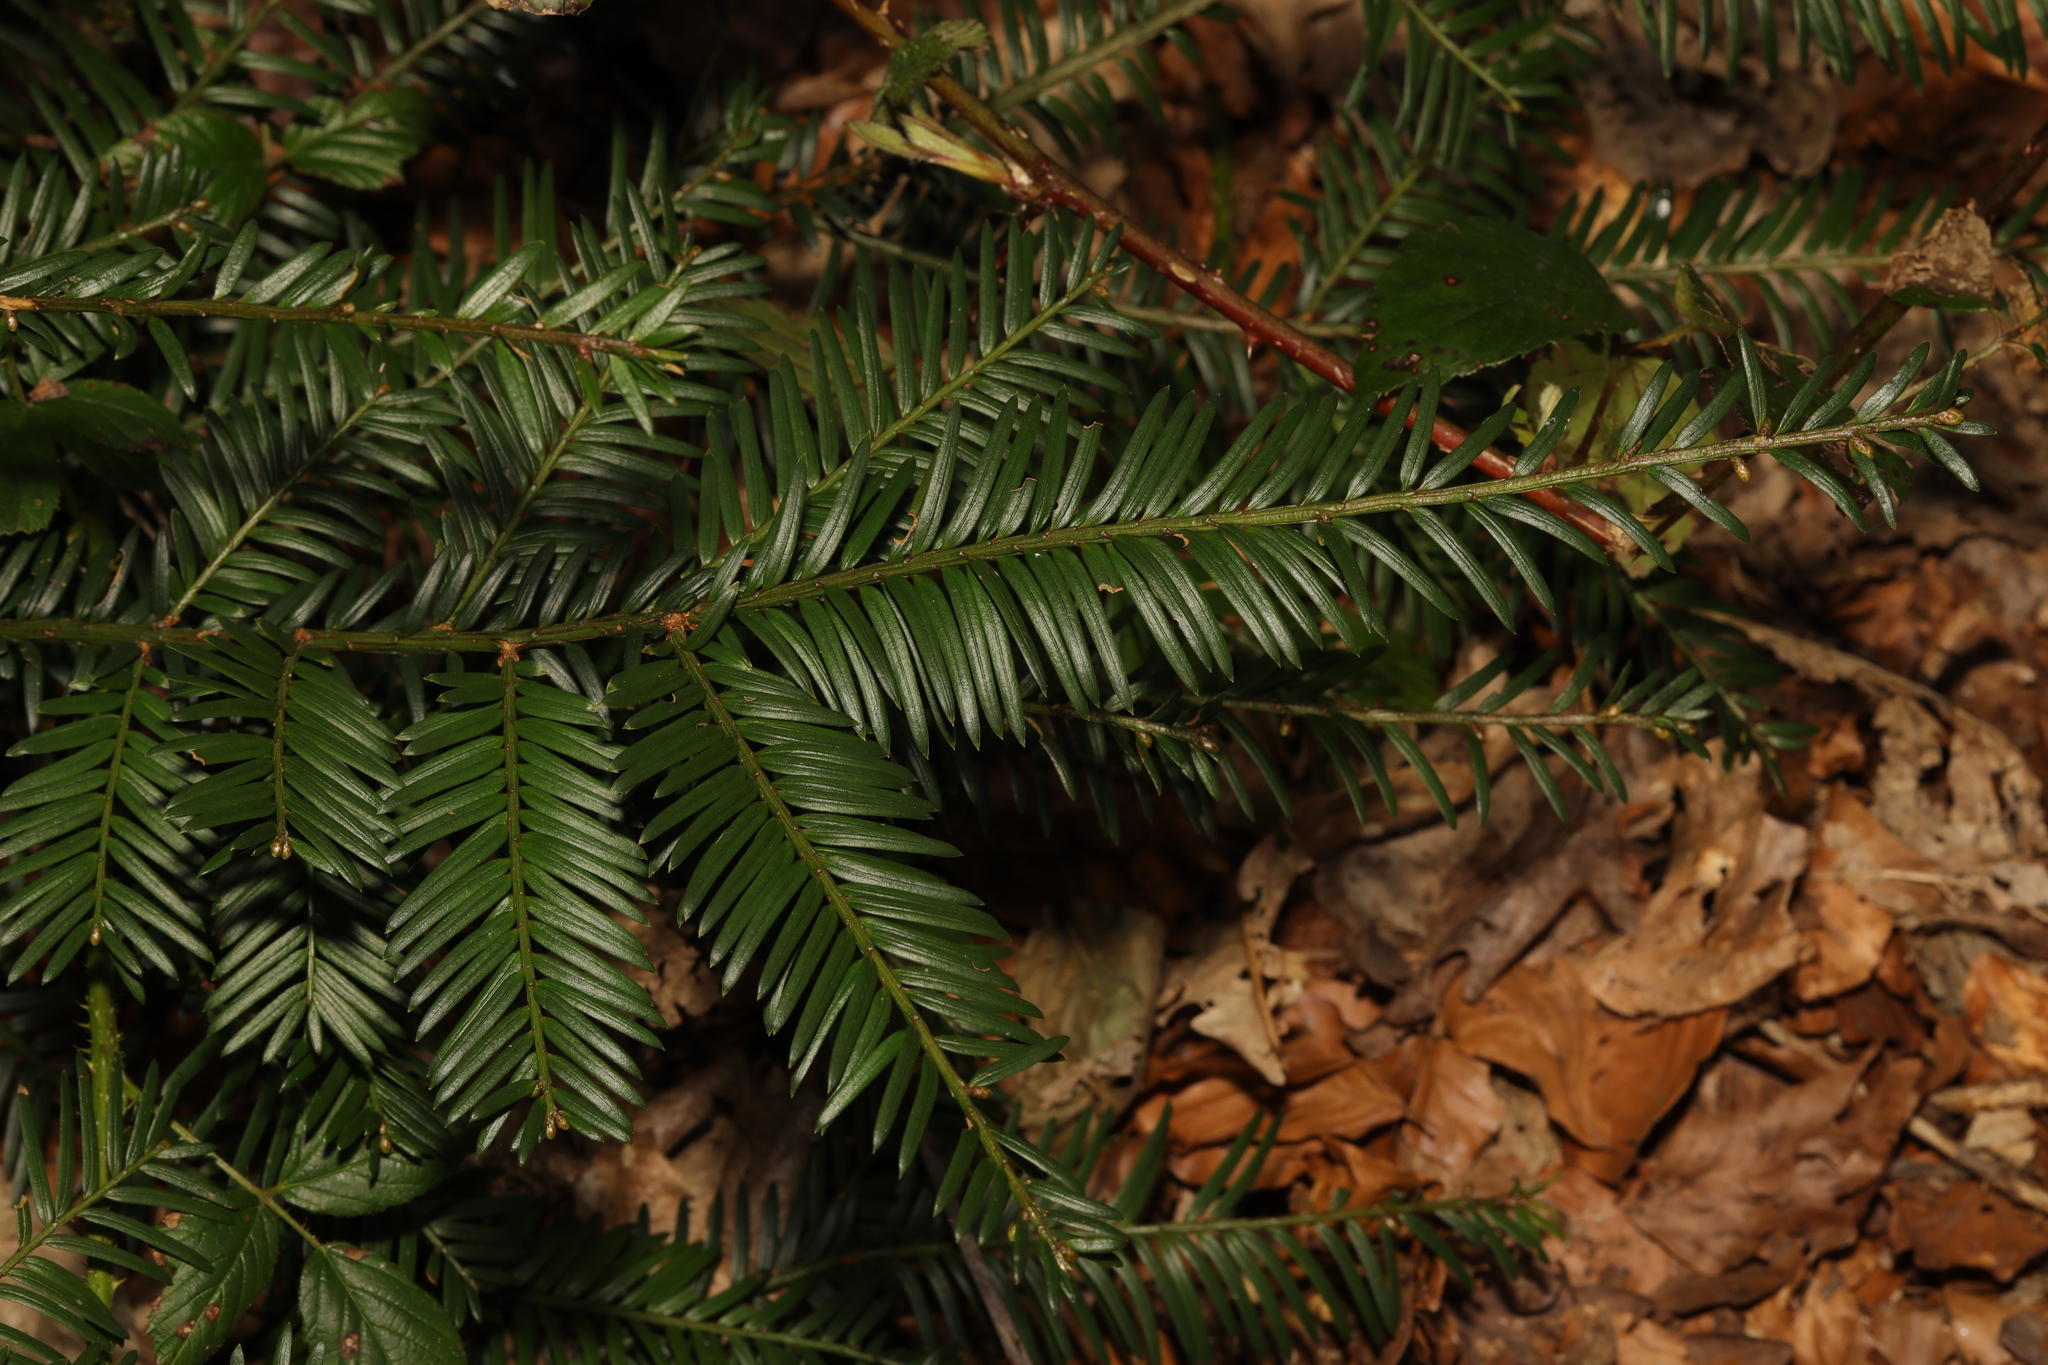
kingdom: Plantae
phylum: Tracheophyta
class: Pinopsida
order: Pinales
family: Taxaceae
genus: Taxus
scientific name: Taxus baccata
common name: Yew
